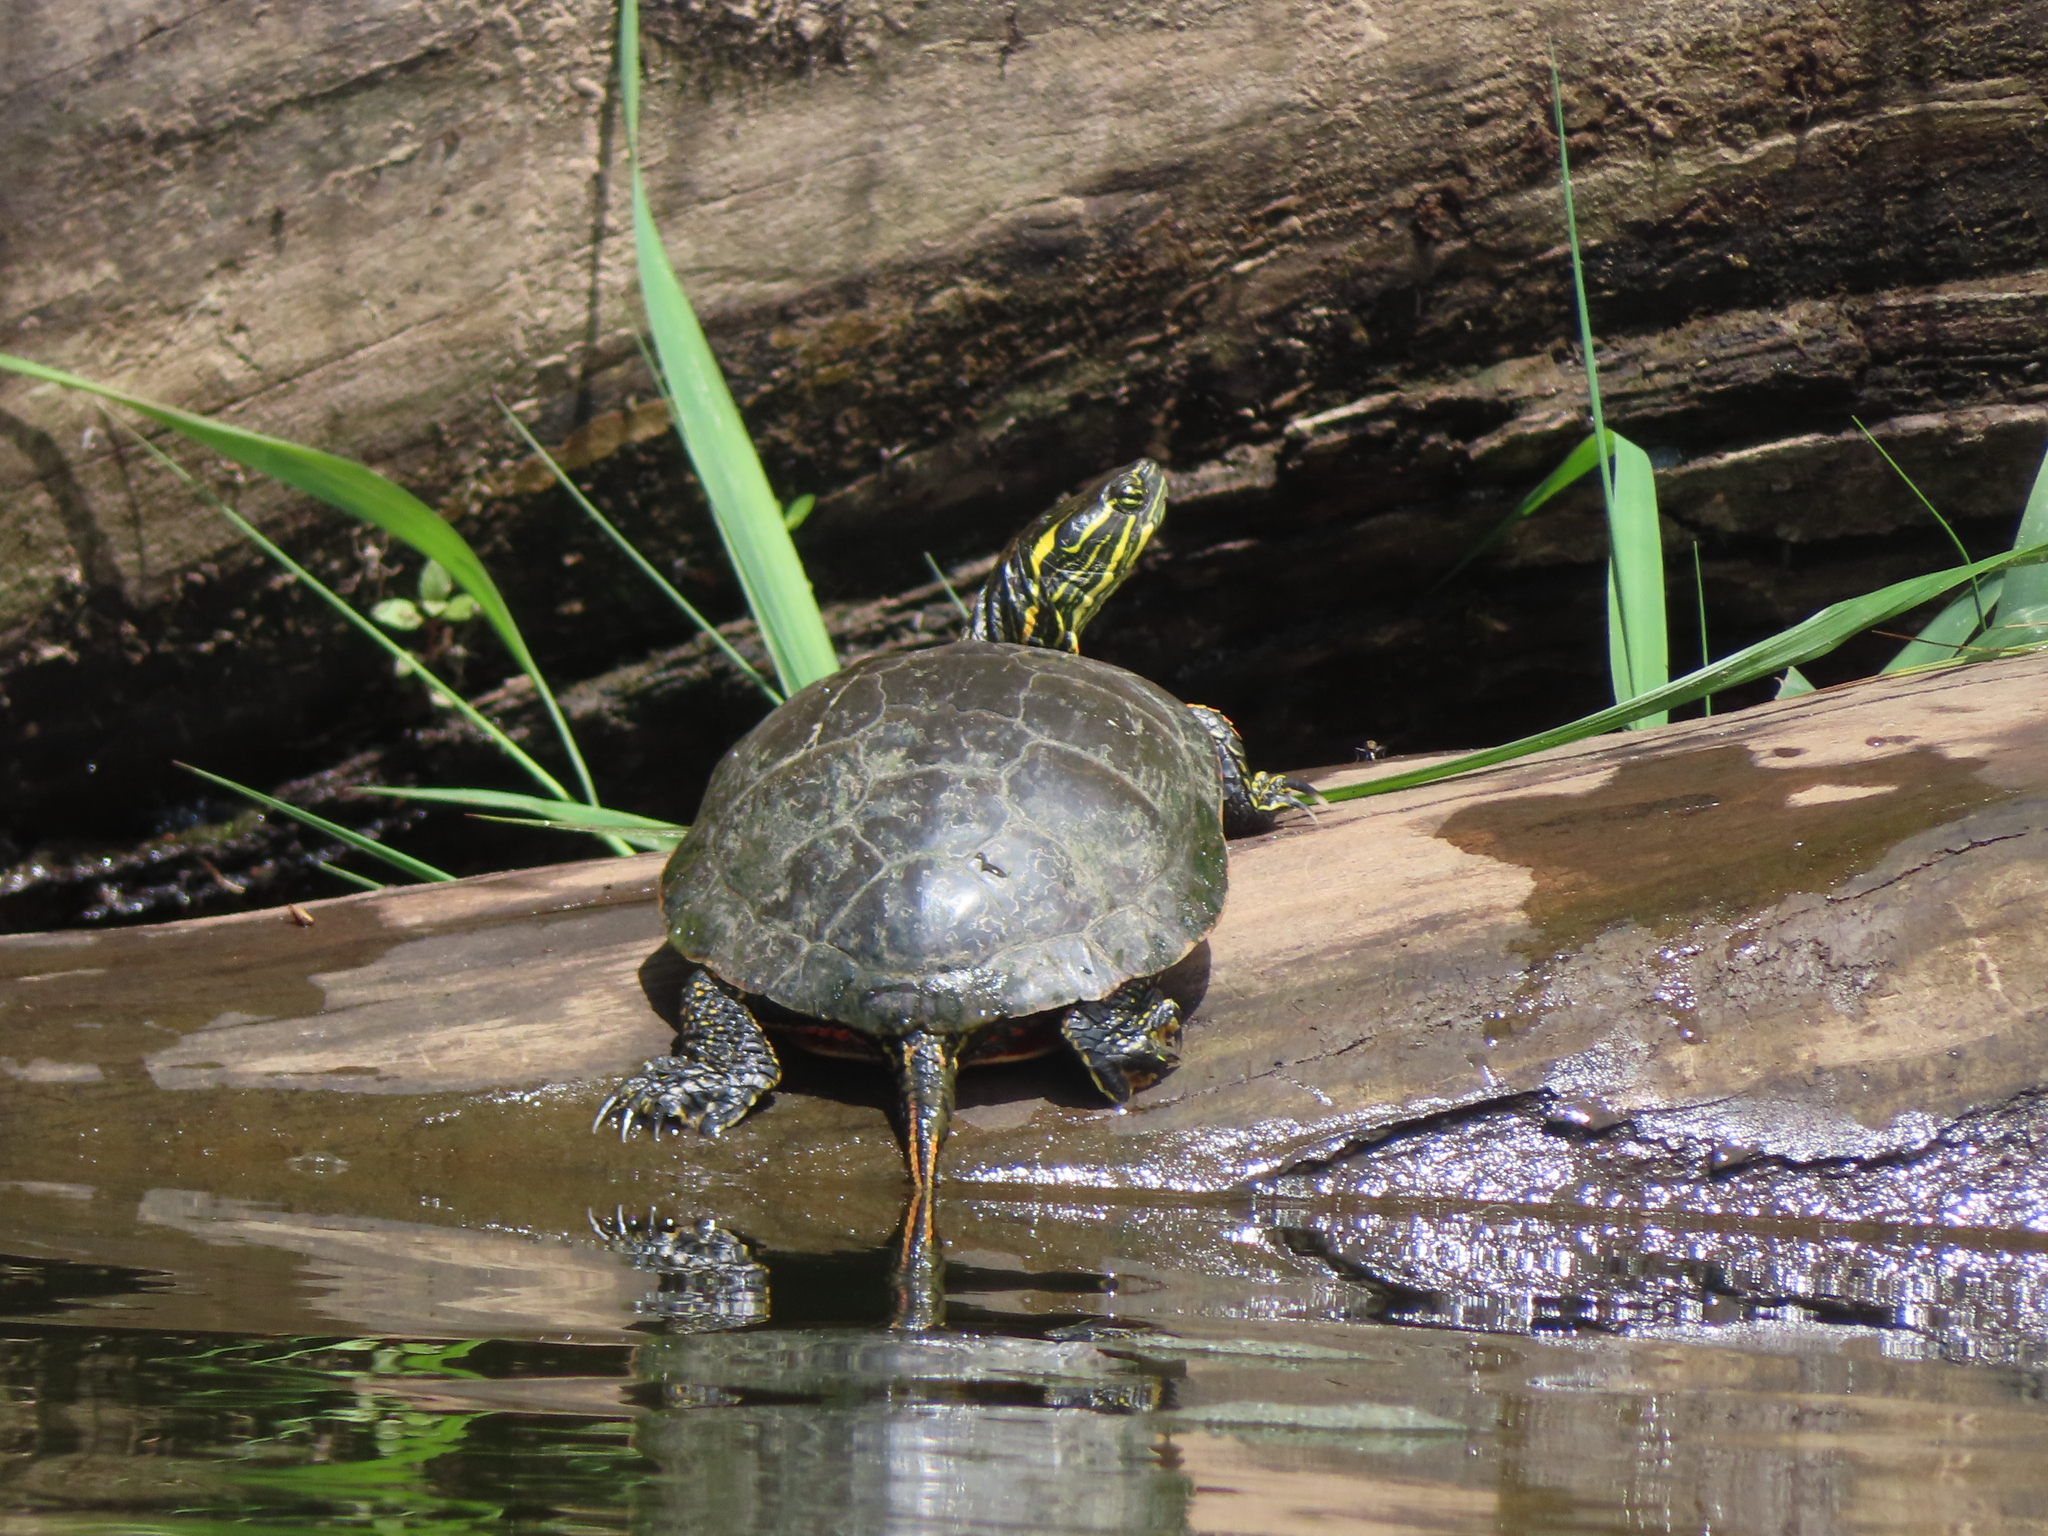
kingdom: Animalia
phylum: Chordata
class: Testudines
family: Emydidae
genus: Chrysemys
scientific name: Chrysemys picta
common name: Painted turtle
